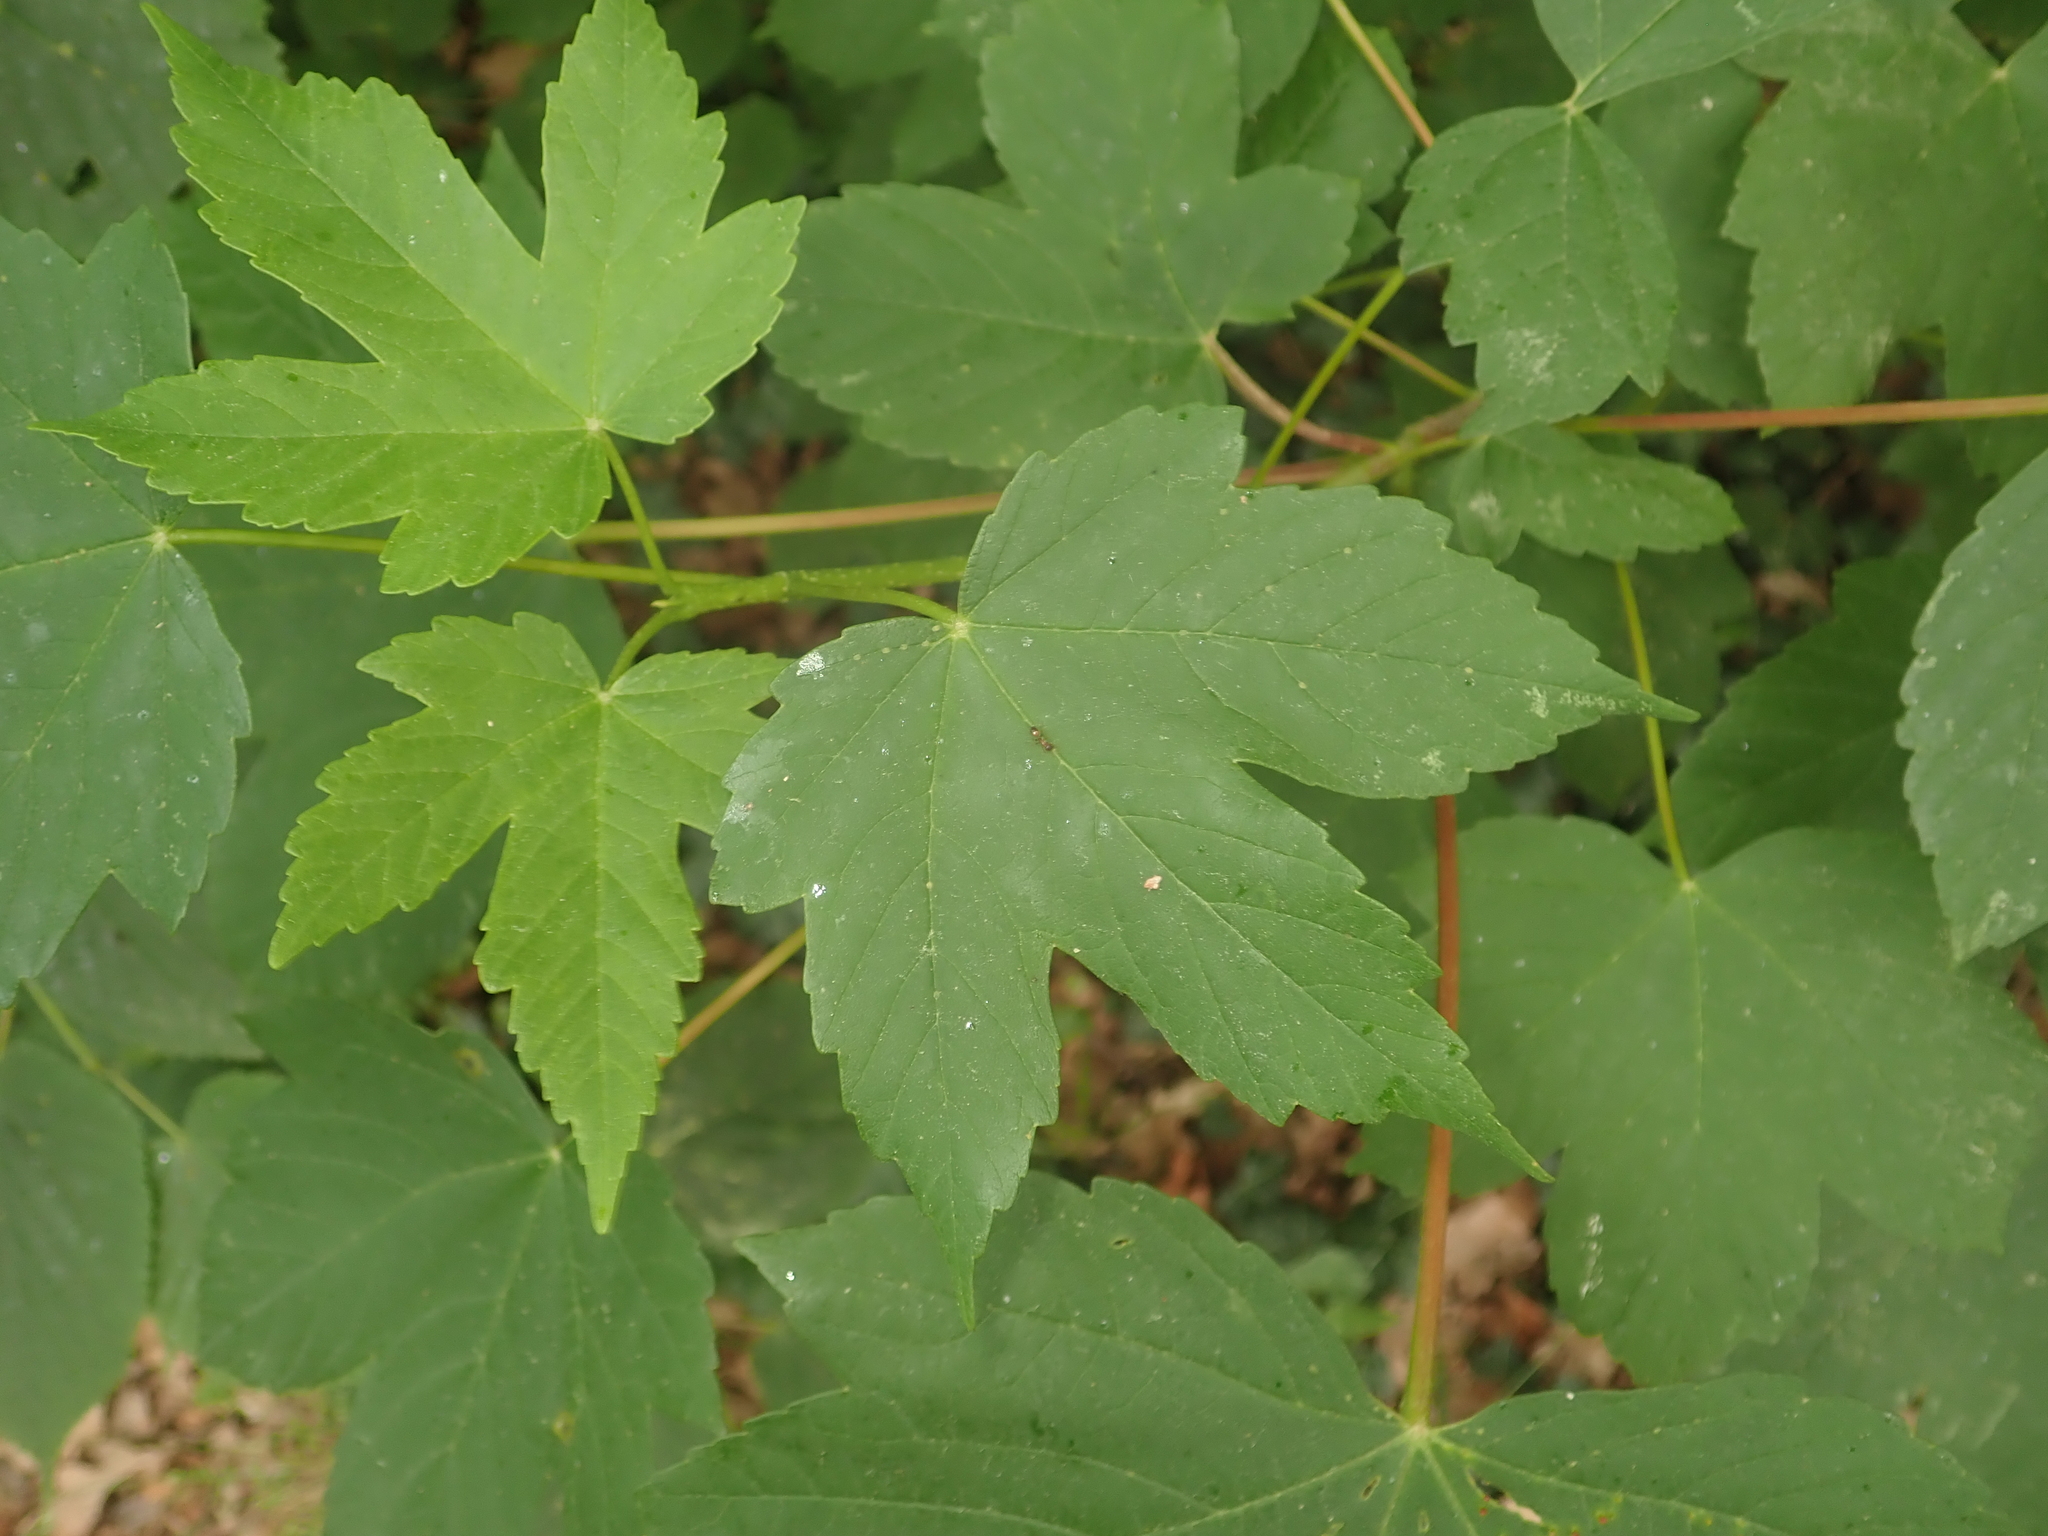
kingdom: Plantae
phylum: Tracheophyta
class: Magnoliopsida
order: Sapindales
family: Sapindaceae
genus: Acer
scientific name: Acer pseudoplatanus
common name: Sycamore
